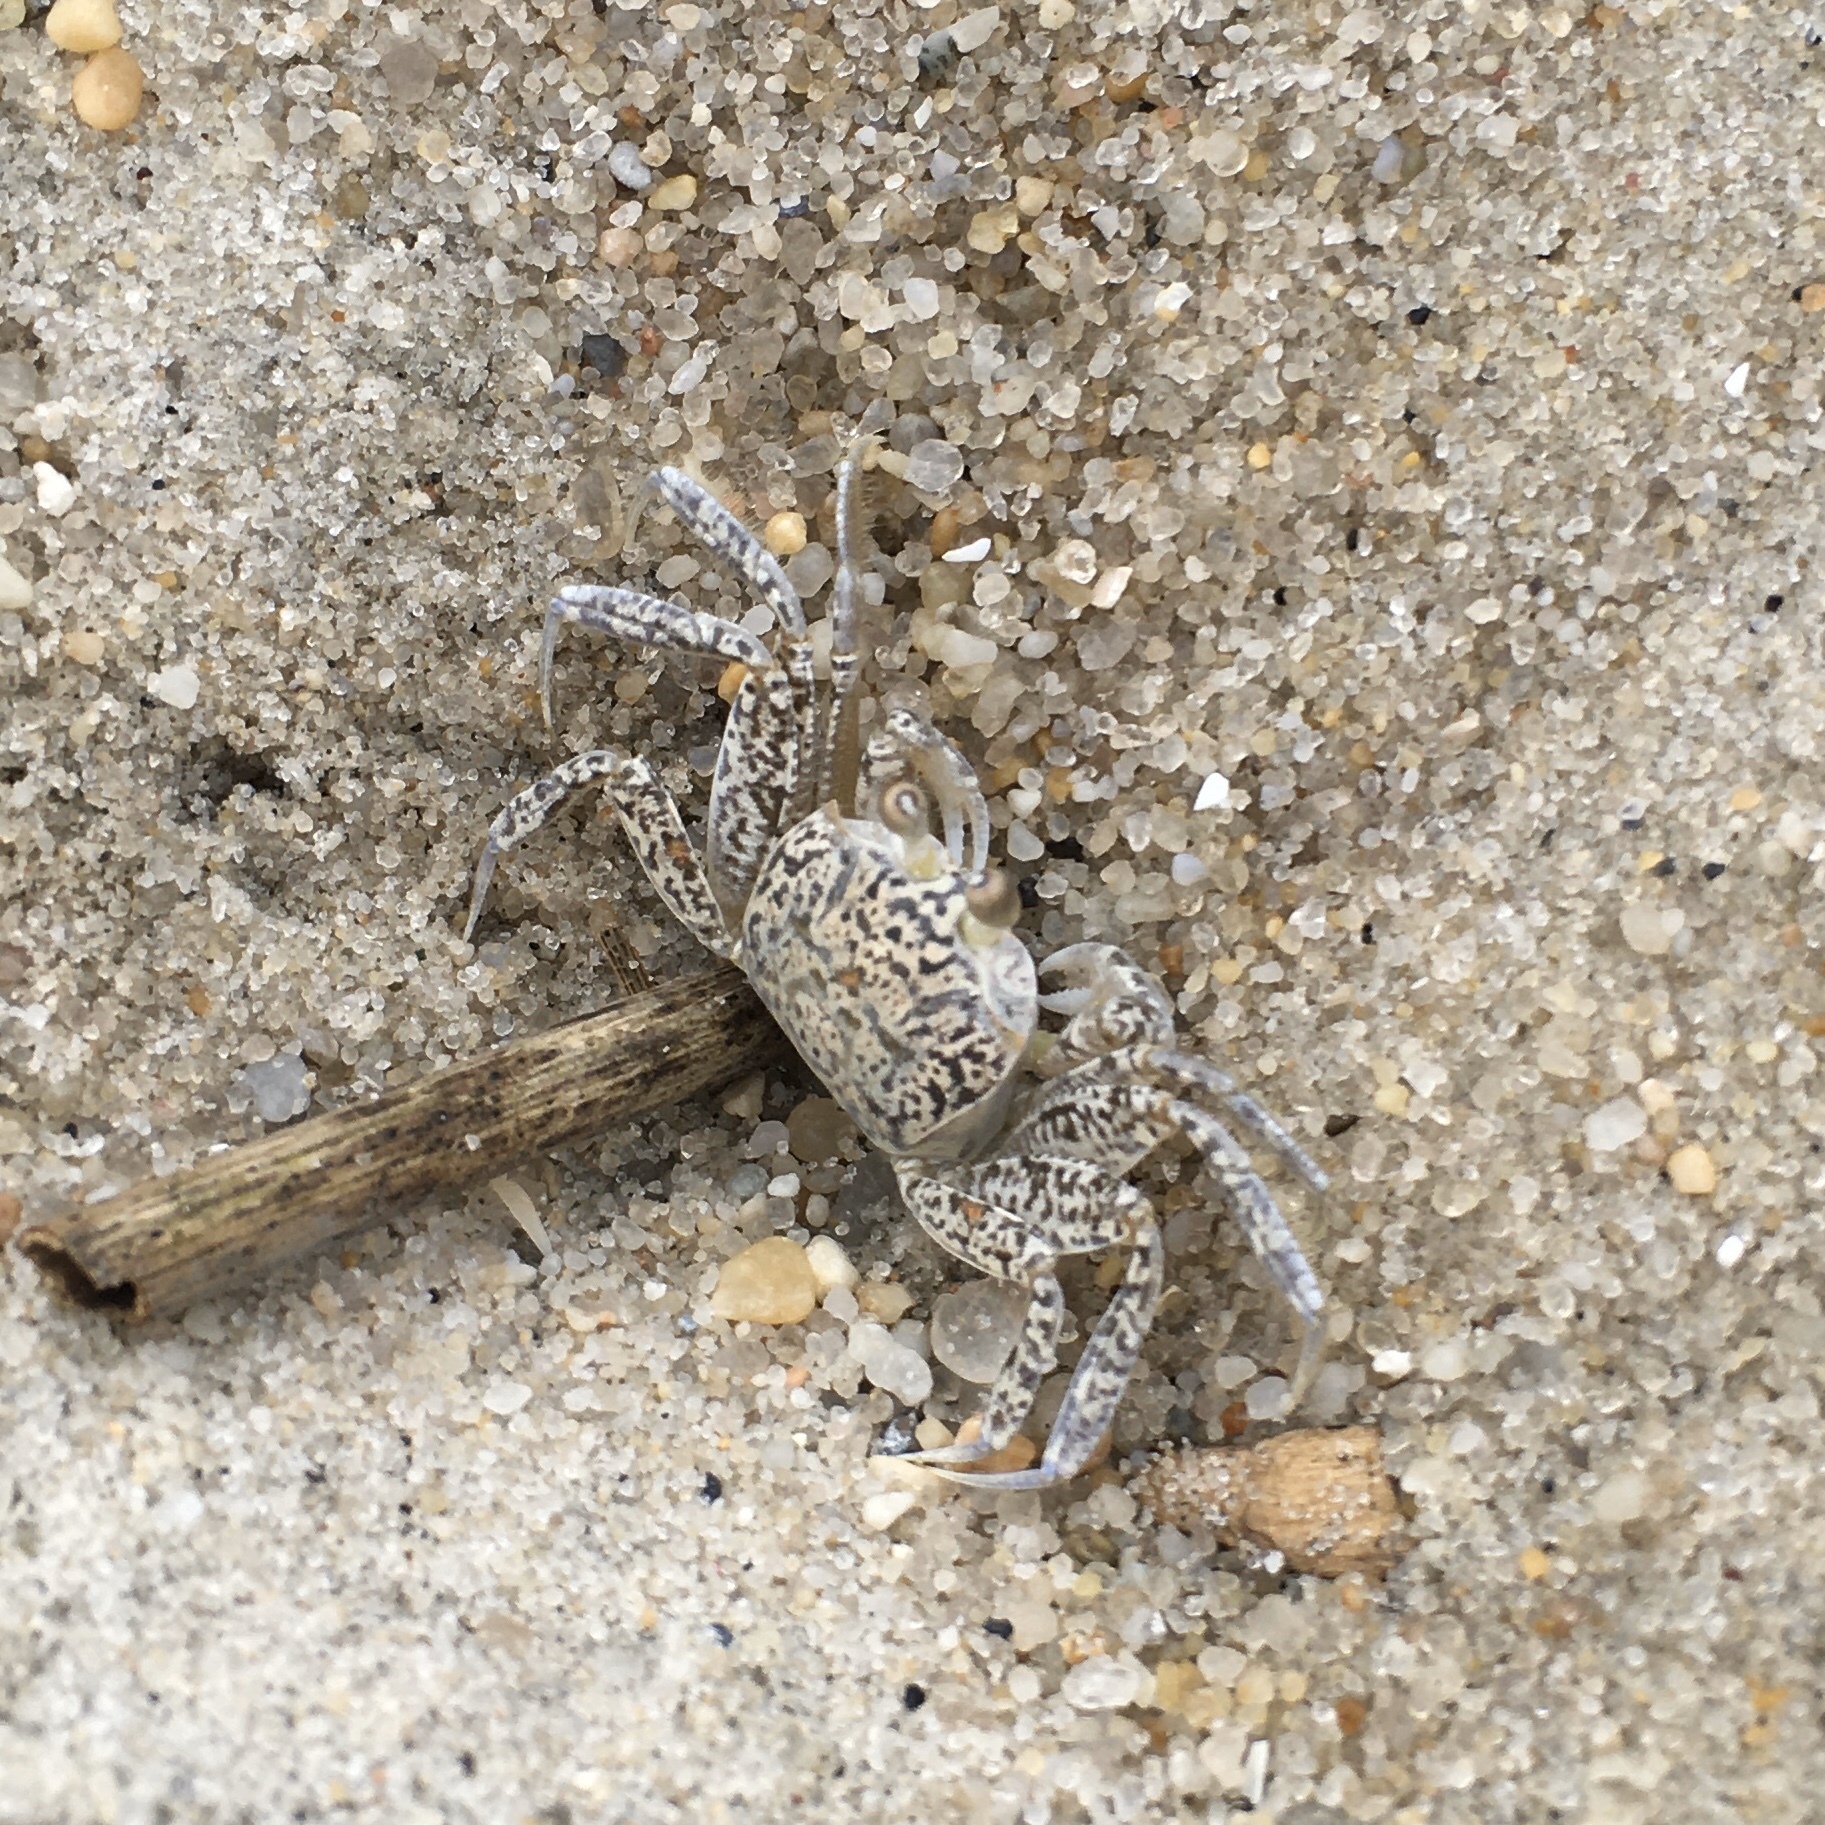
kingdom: Animalia
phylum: Arthropoda
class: Malacostraca
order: Decapoda
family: Ocypodidae
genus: Ocypode
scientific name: Ocypode quadrata
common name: Ghost crab
